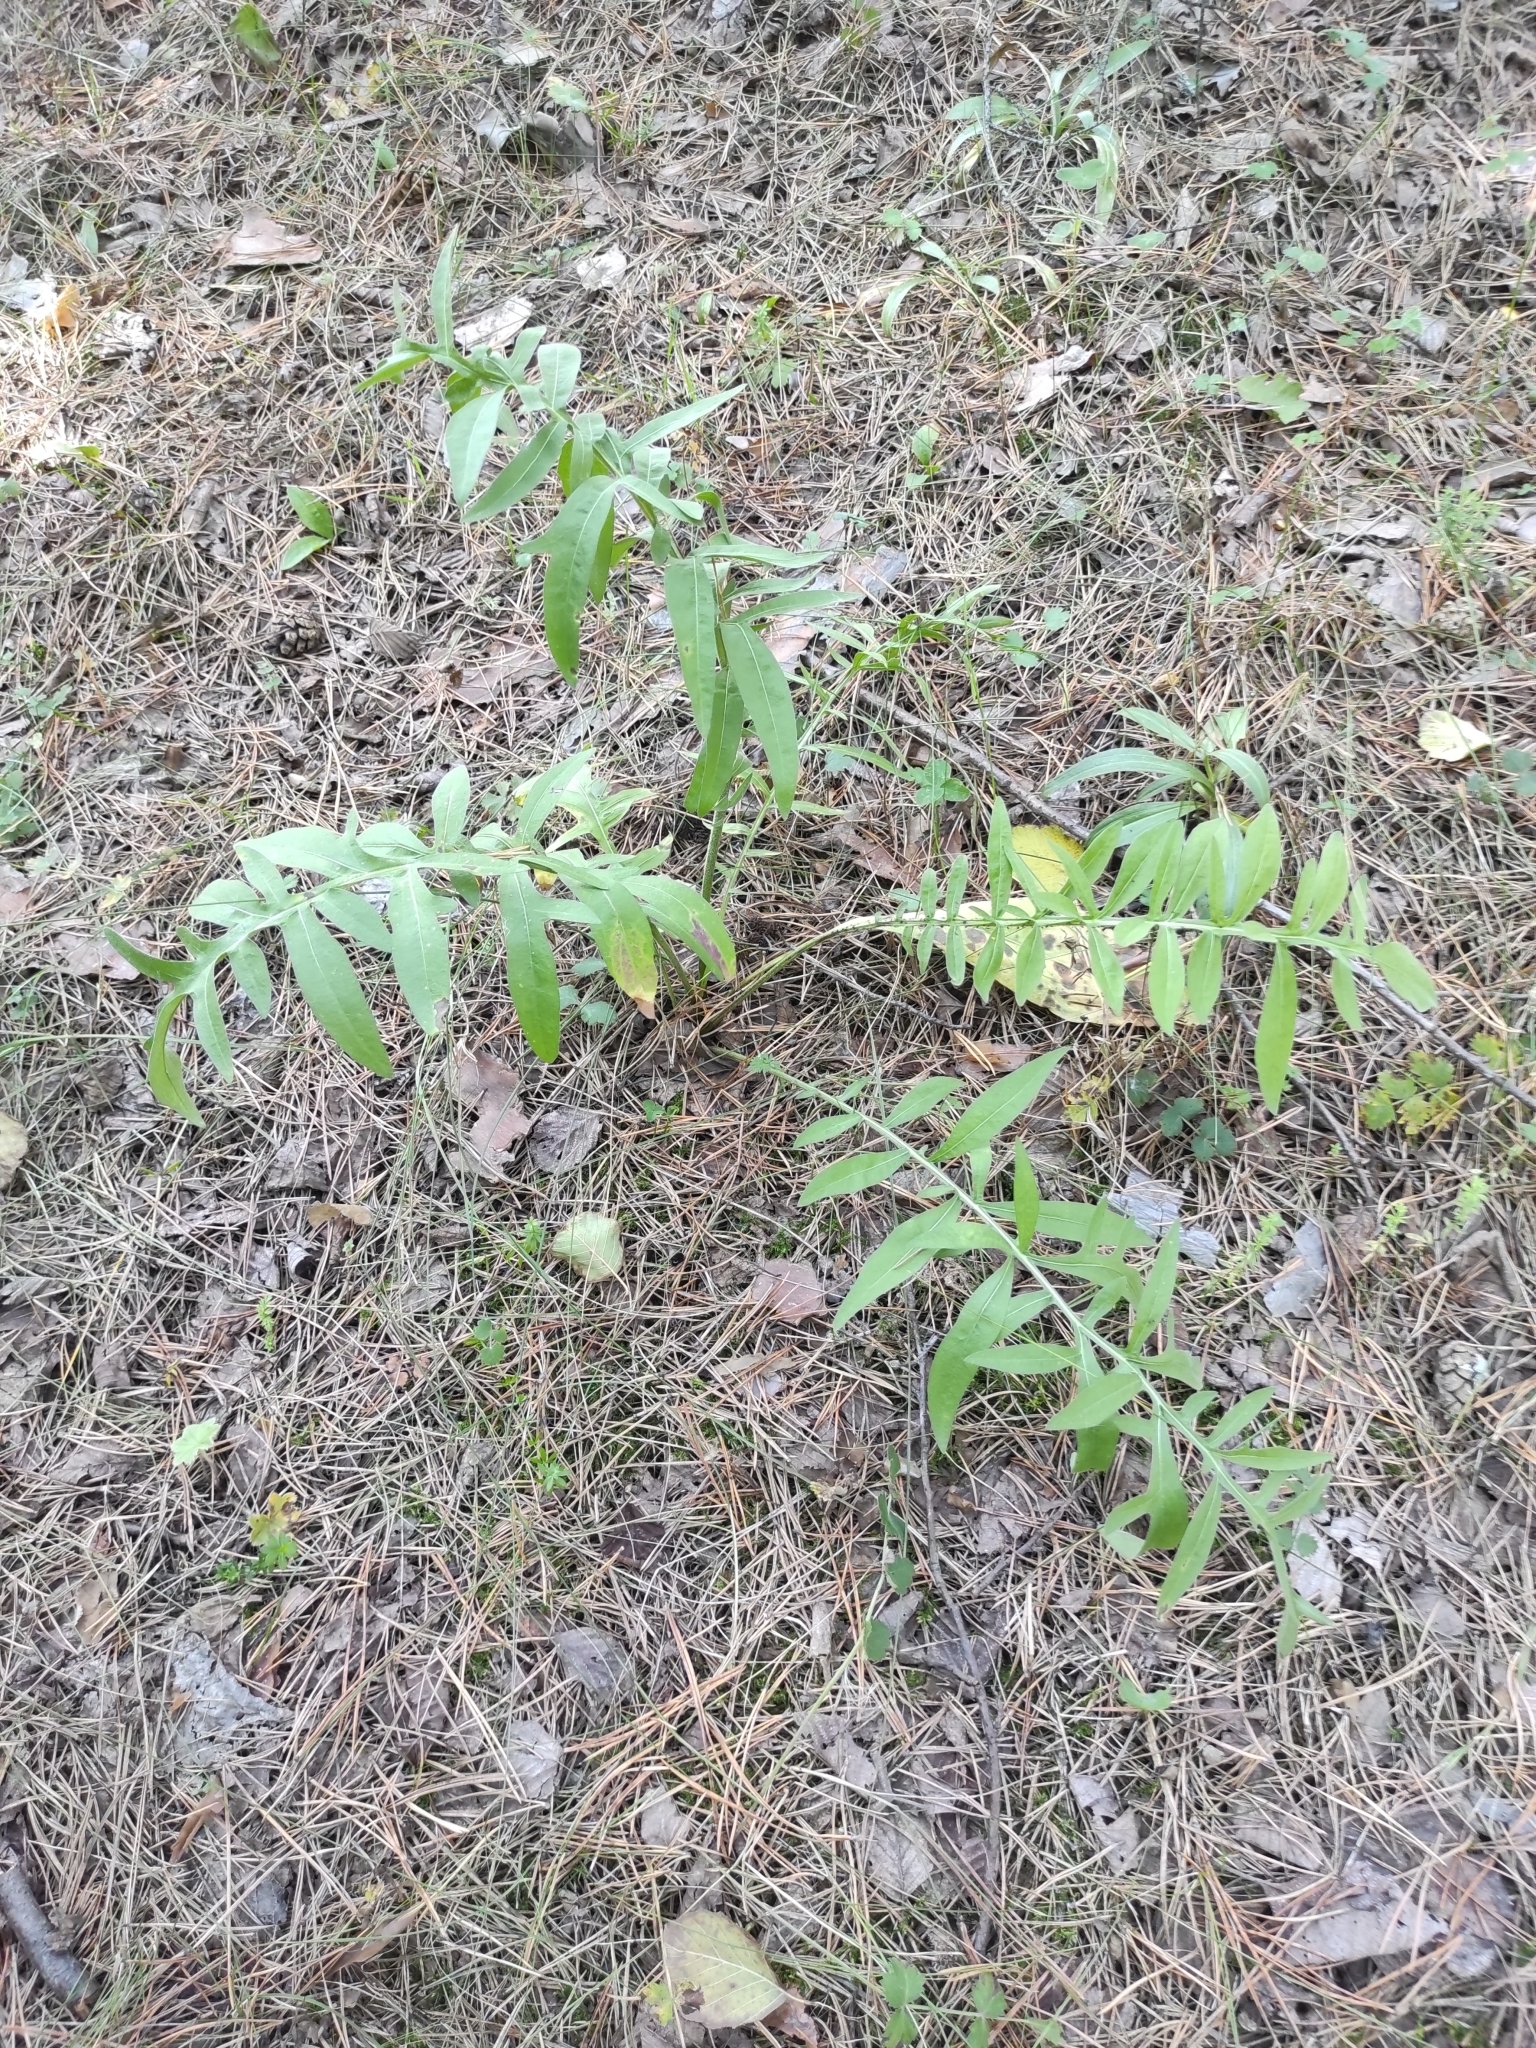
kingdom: Plantae
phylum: Tracheophyta
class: Magnoliopsida
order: Asterales
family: Asteraceae
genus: Centaurea
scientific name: Centaurea scabiosa
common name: Greater knapweed
